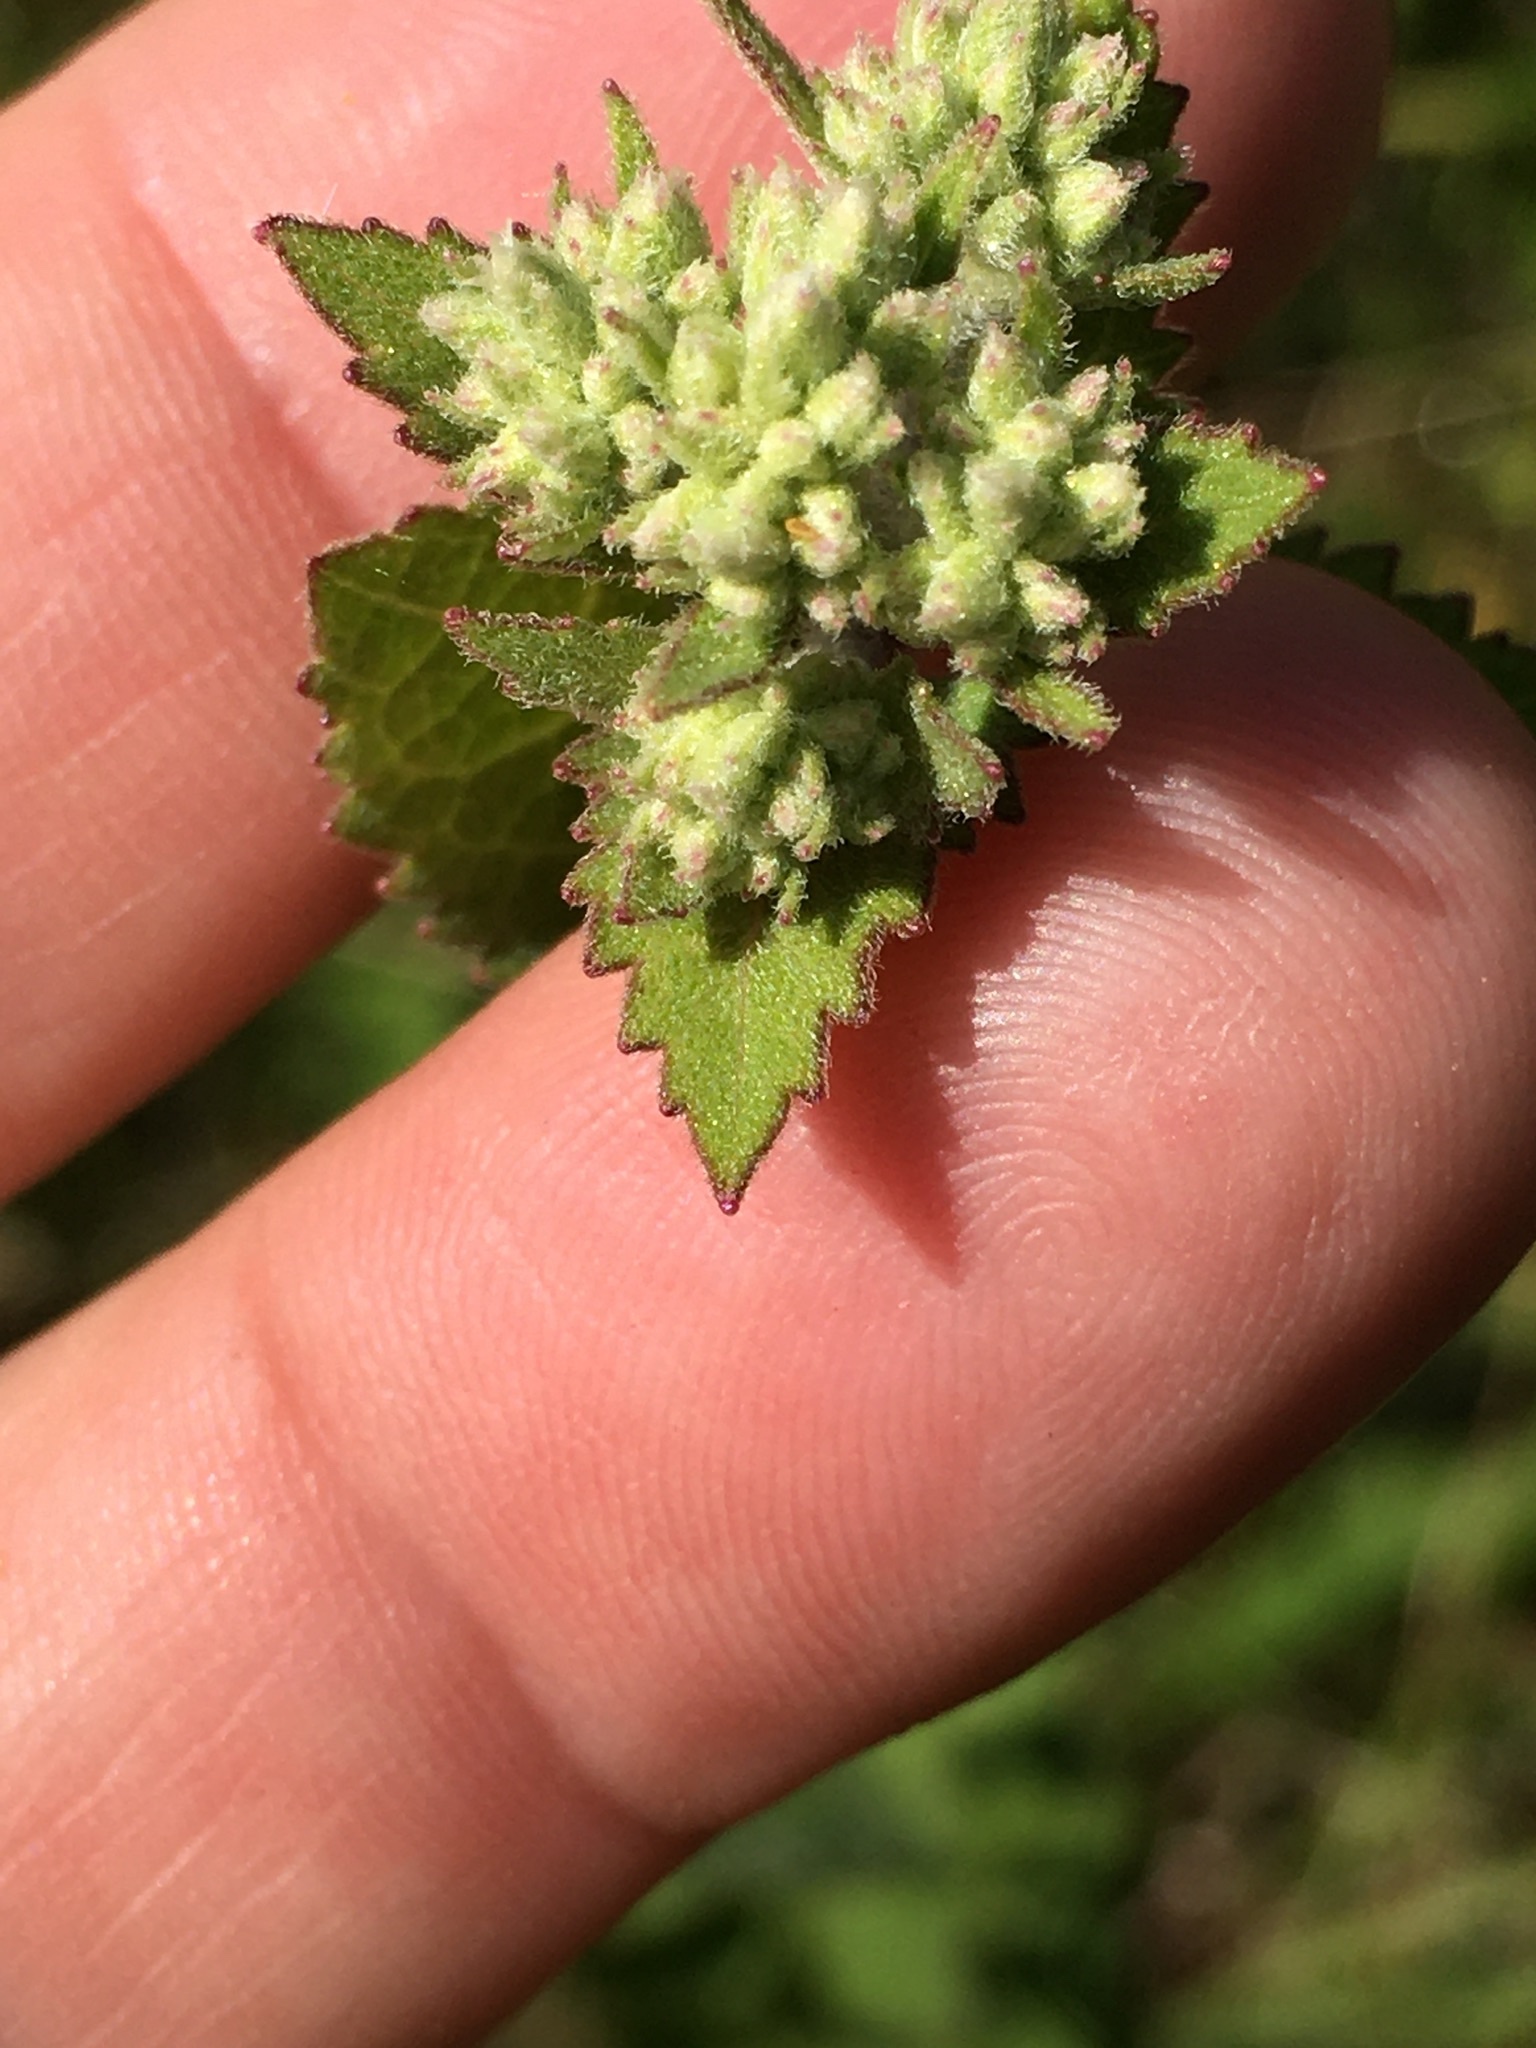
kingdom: Plantae
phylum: Tracheophyta
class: Magnoliopsida
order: Asterales
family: Asteraceae
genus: Eupatorium
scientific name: Eupatorium rotundifolium
